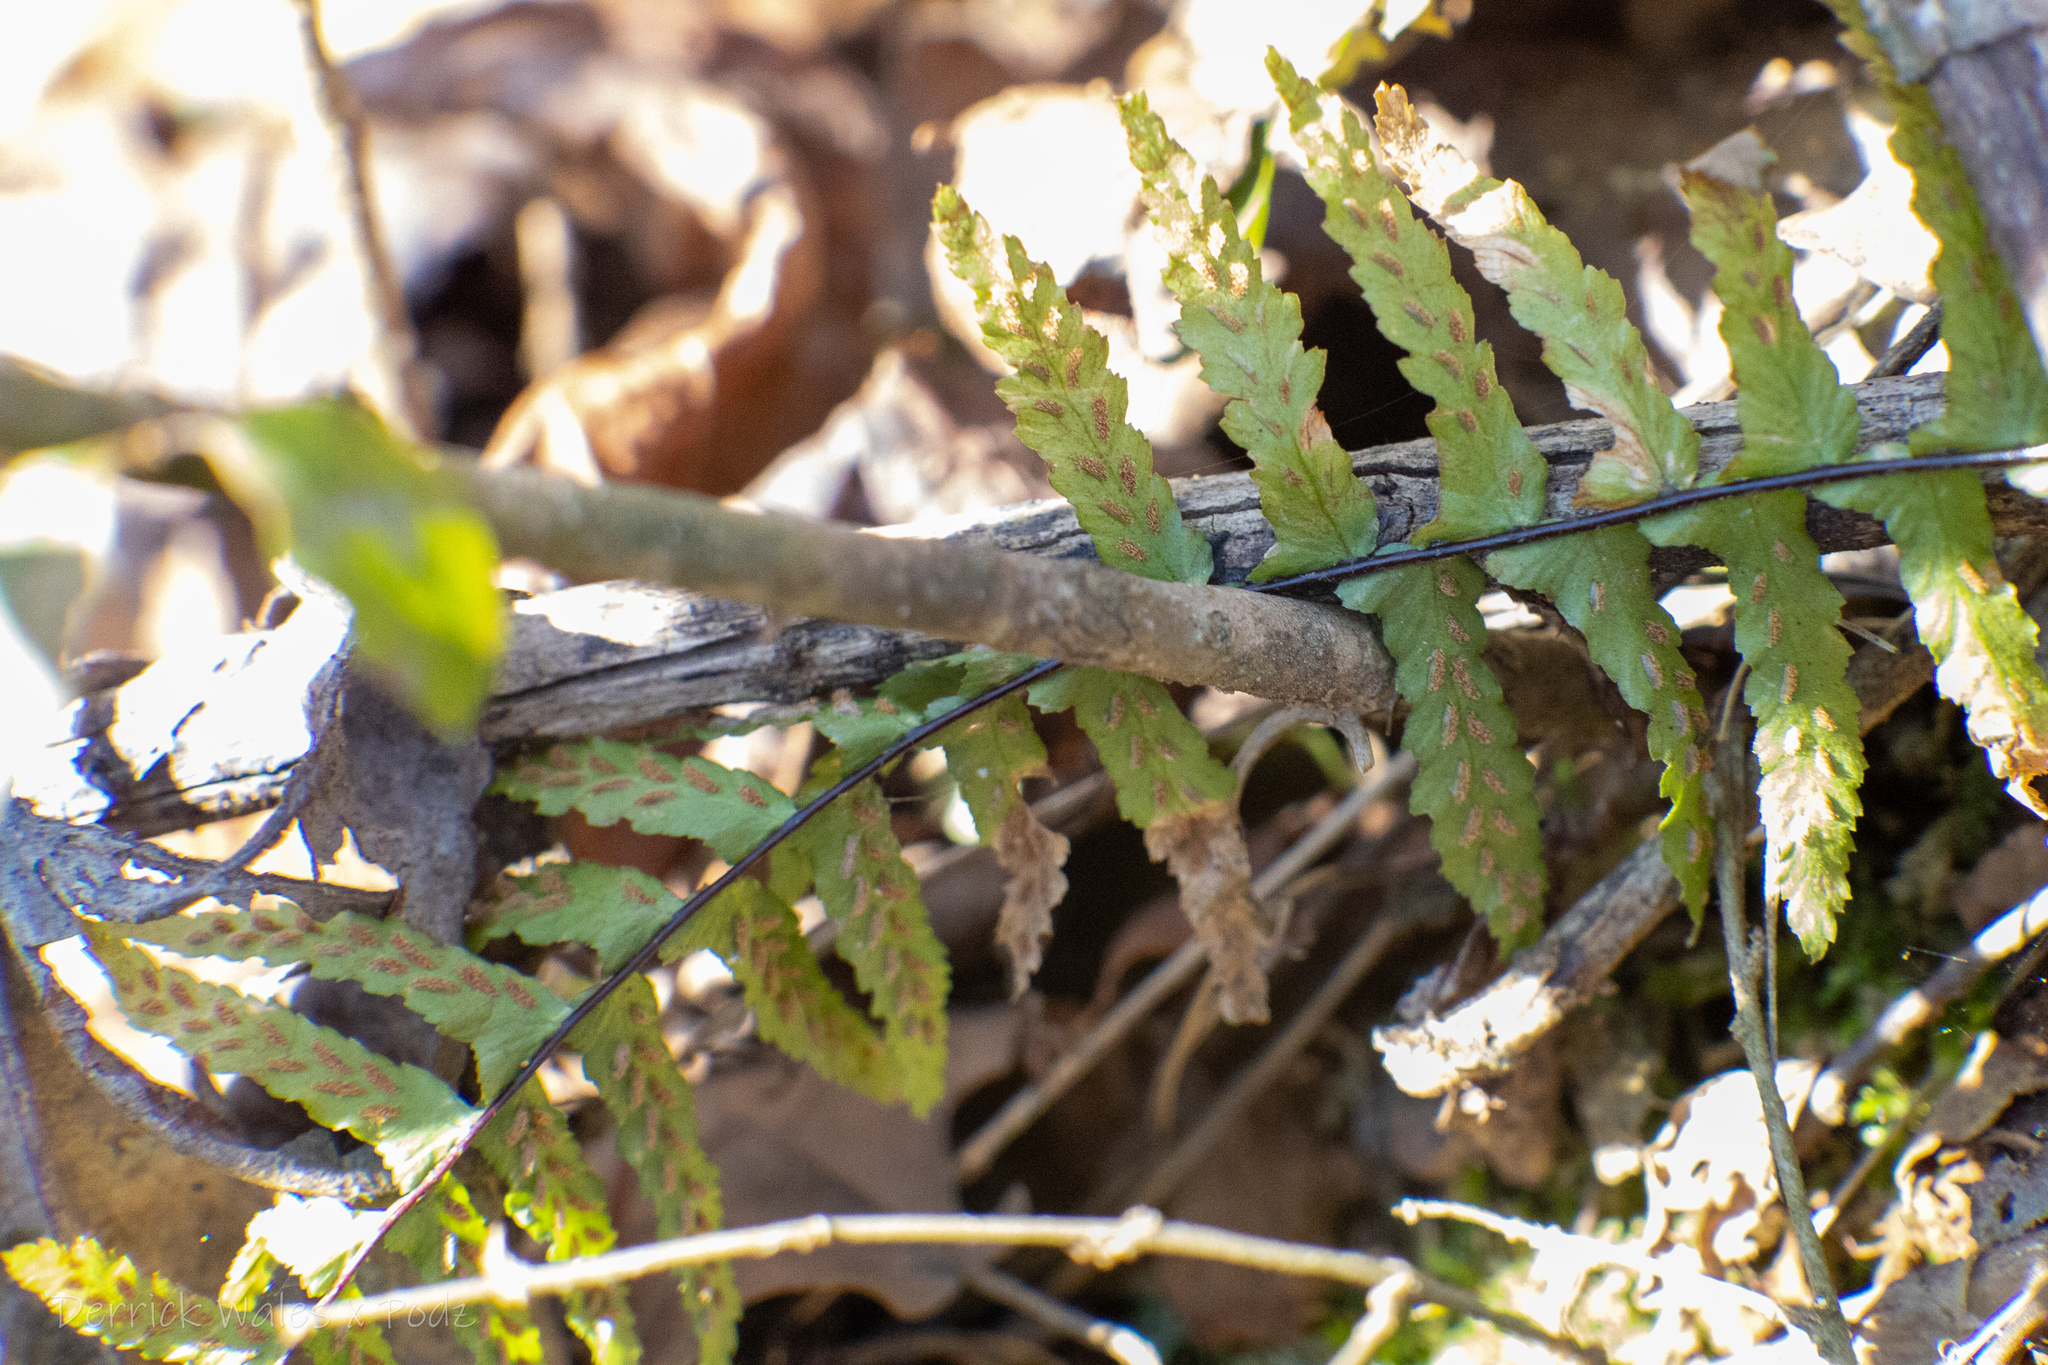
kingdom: Plantae
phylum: Tracheophyta
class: Polypodiopsida
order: Polypodiales
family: Aspleniaceae
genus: Asplenium
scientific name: Asplenium platyneuron
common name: Ebony spleenwort
